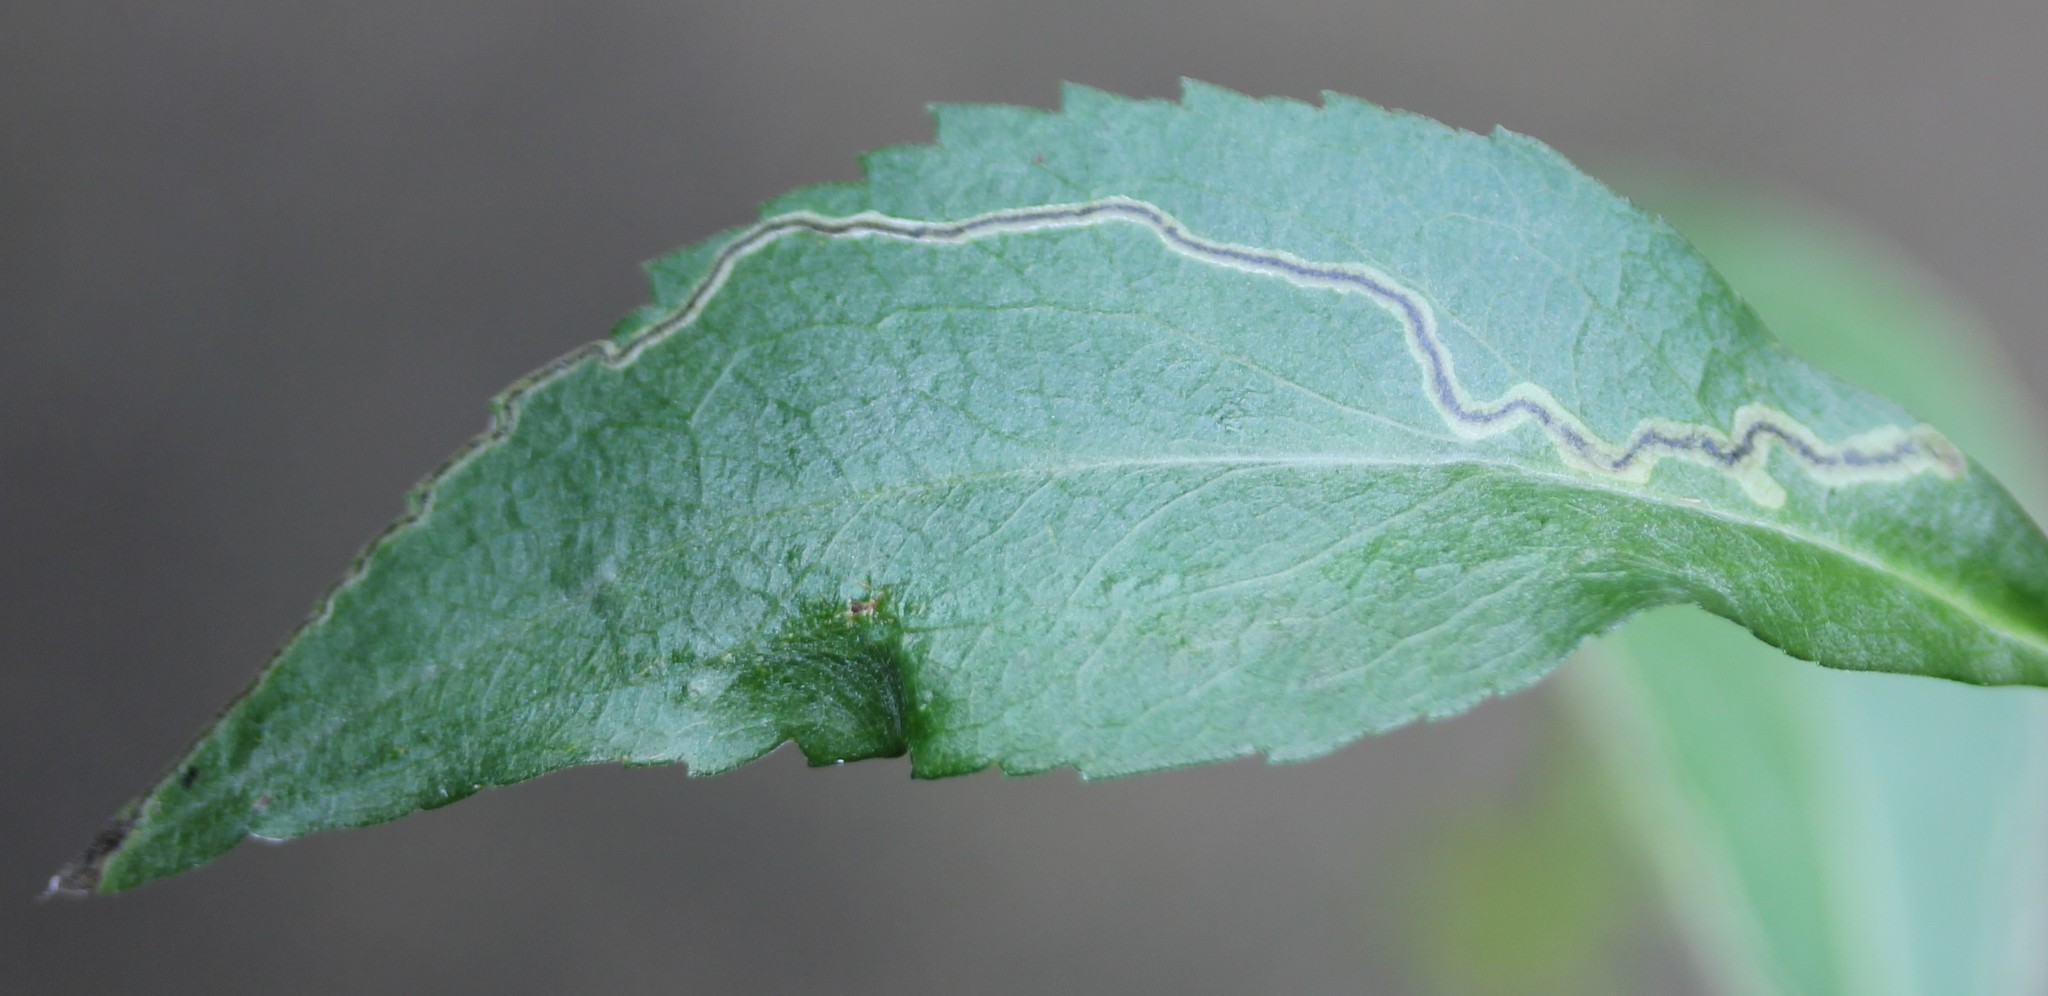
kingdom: Animalia
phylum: Arthropoda
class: Insecta
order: Diptera
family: Agromyzidae
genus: Liriomyza
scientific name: Liriomyza eupatorii
